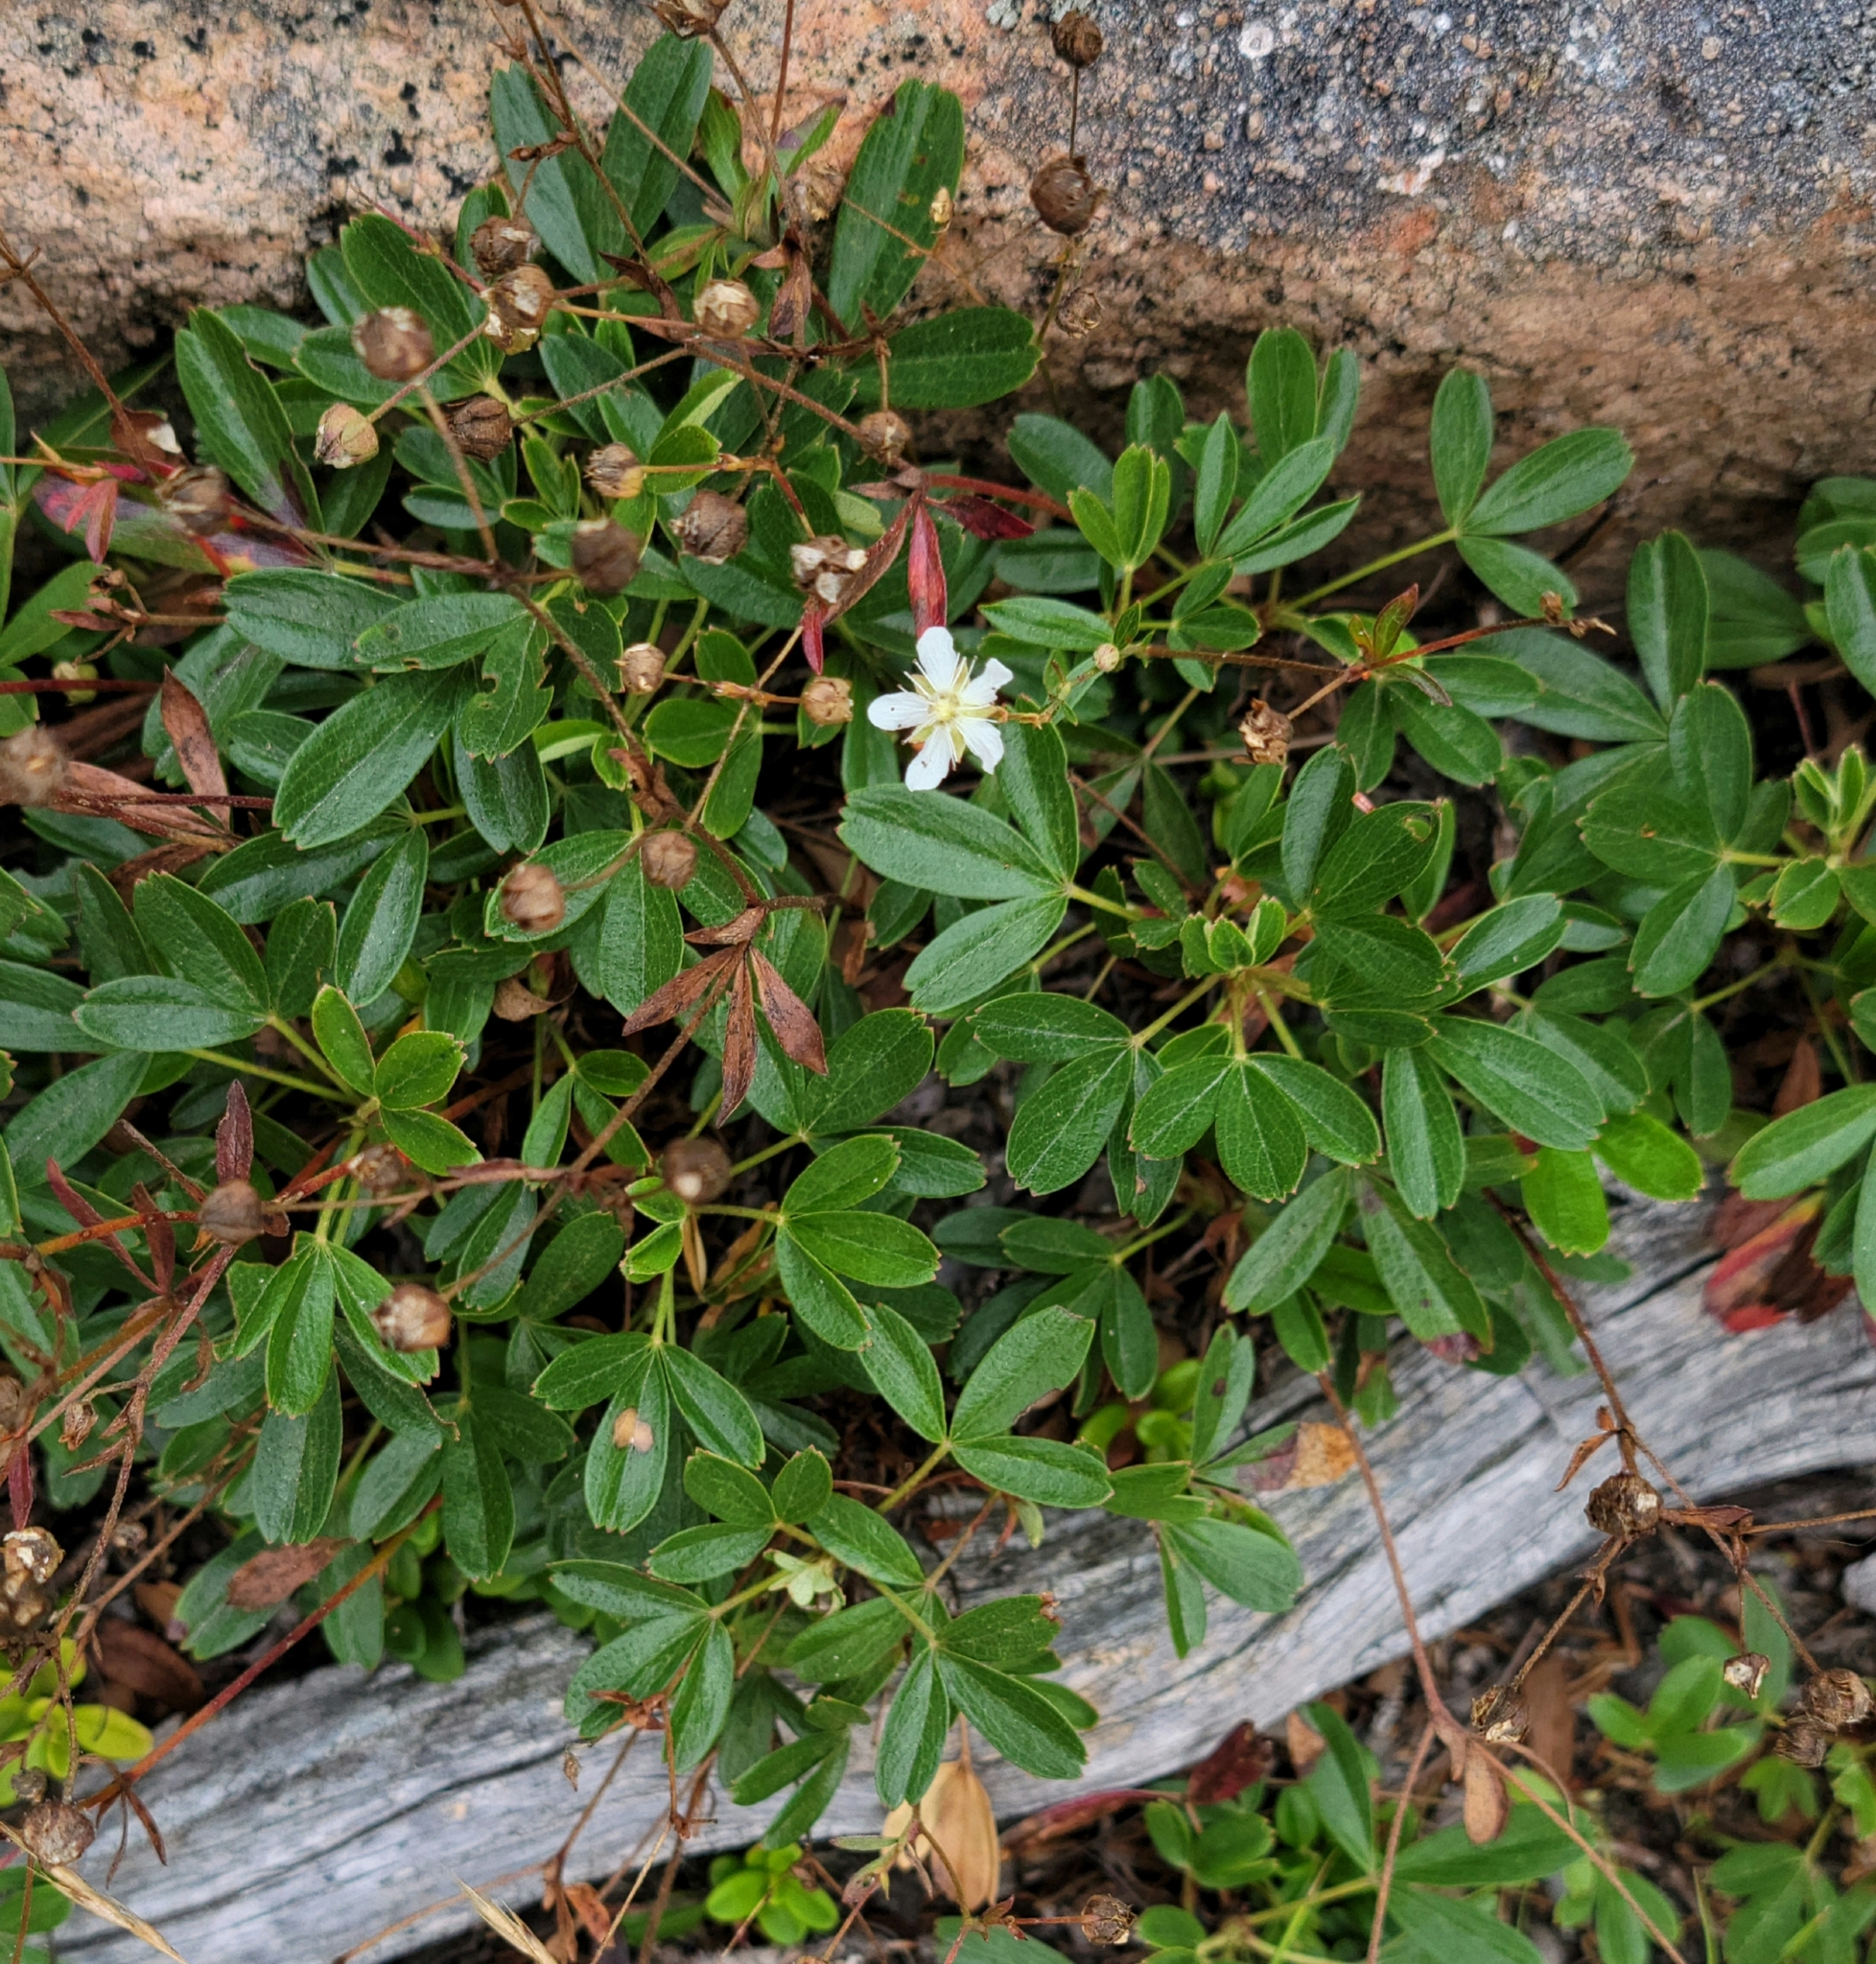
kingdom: Plantae
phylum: Tracheophyta
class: Magnoliopsida
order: Rosales
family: Rosaceae
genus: Sibbaldia
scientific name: Sibbaldia tridentata
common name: Three-toothed cinquefoil
